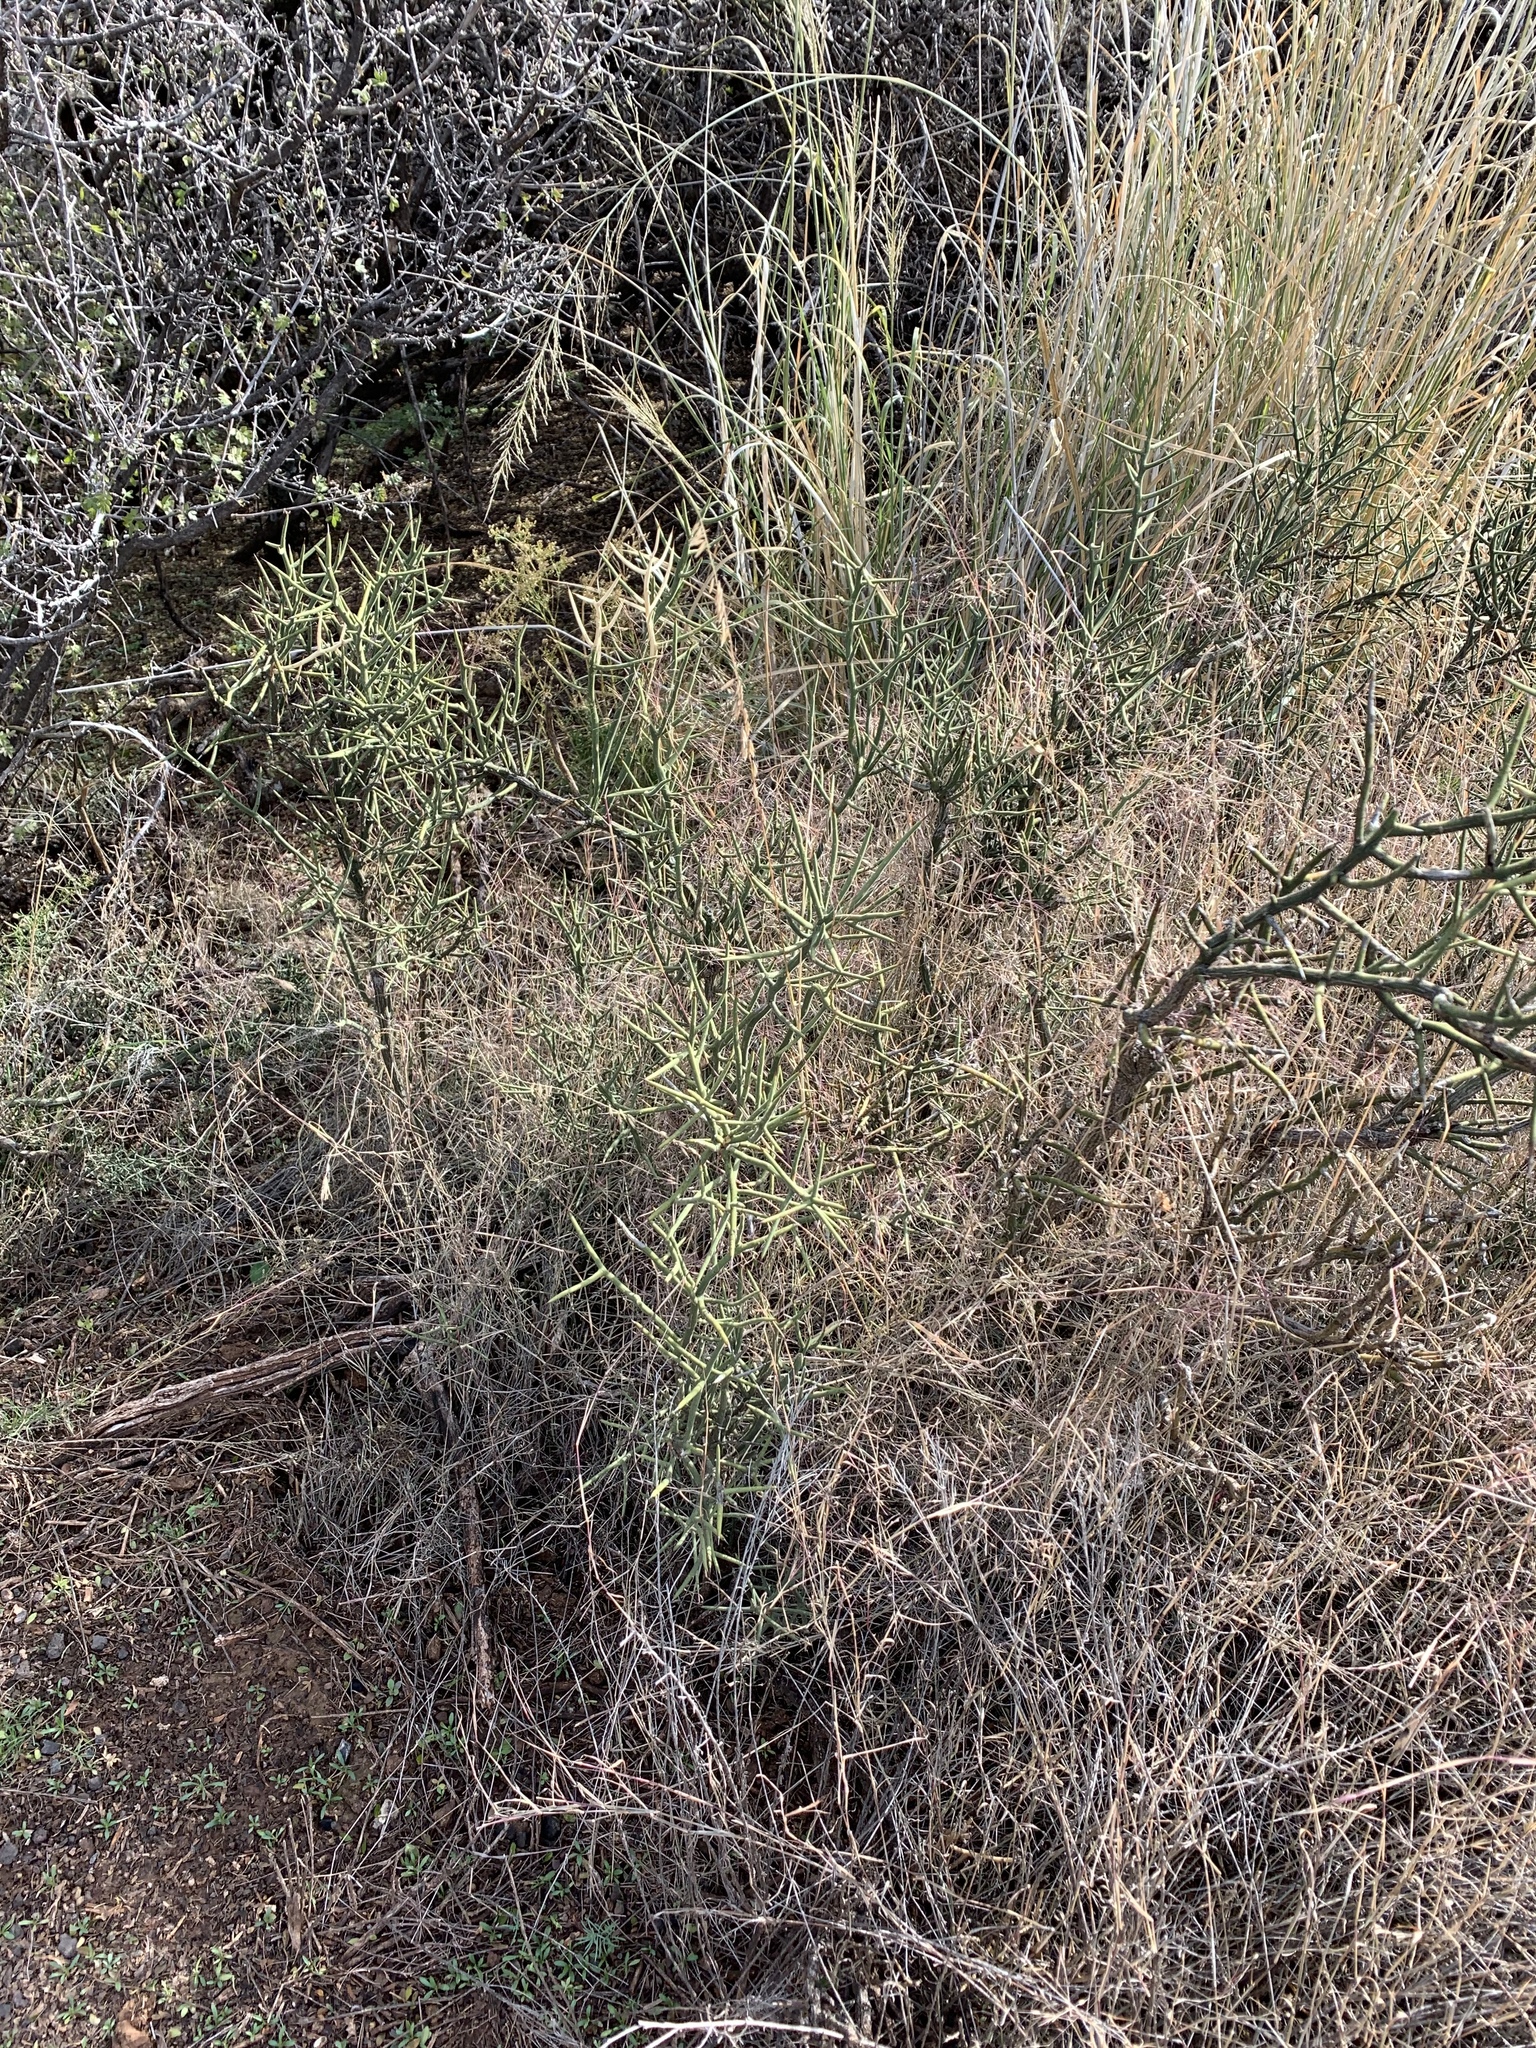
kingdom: Plantae
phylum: Tracheophyta
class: Magnoliopsida
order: Brassicales
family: Koeberliniaceae
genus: Koeberlinia
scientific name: Koeberlinia spinosa
